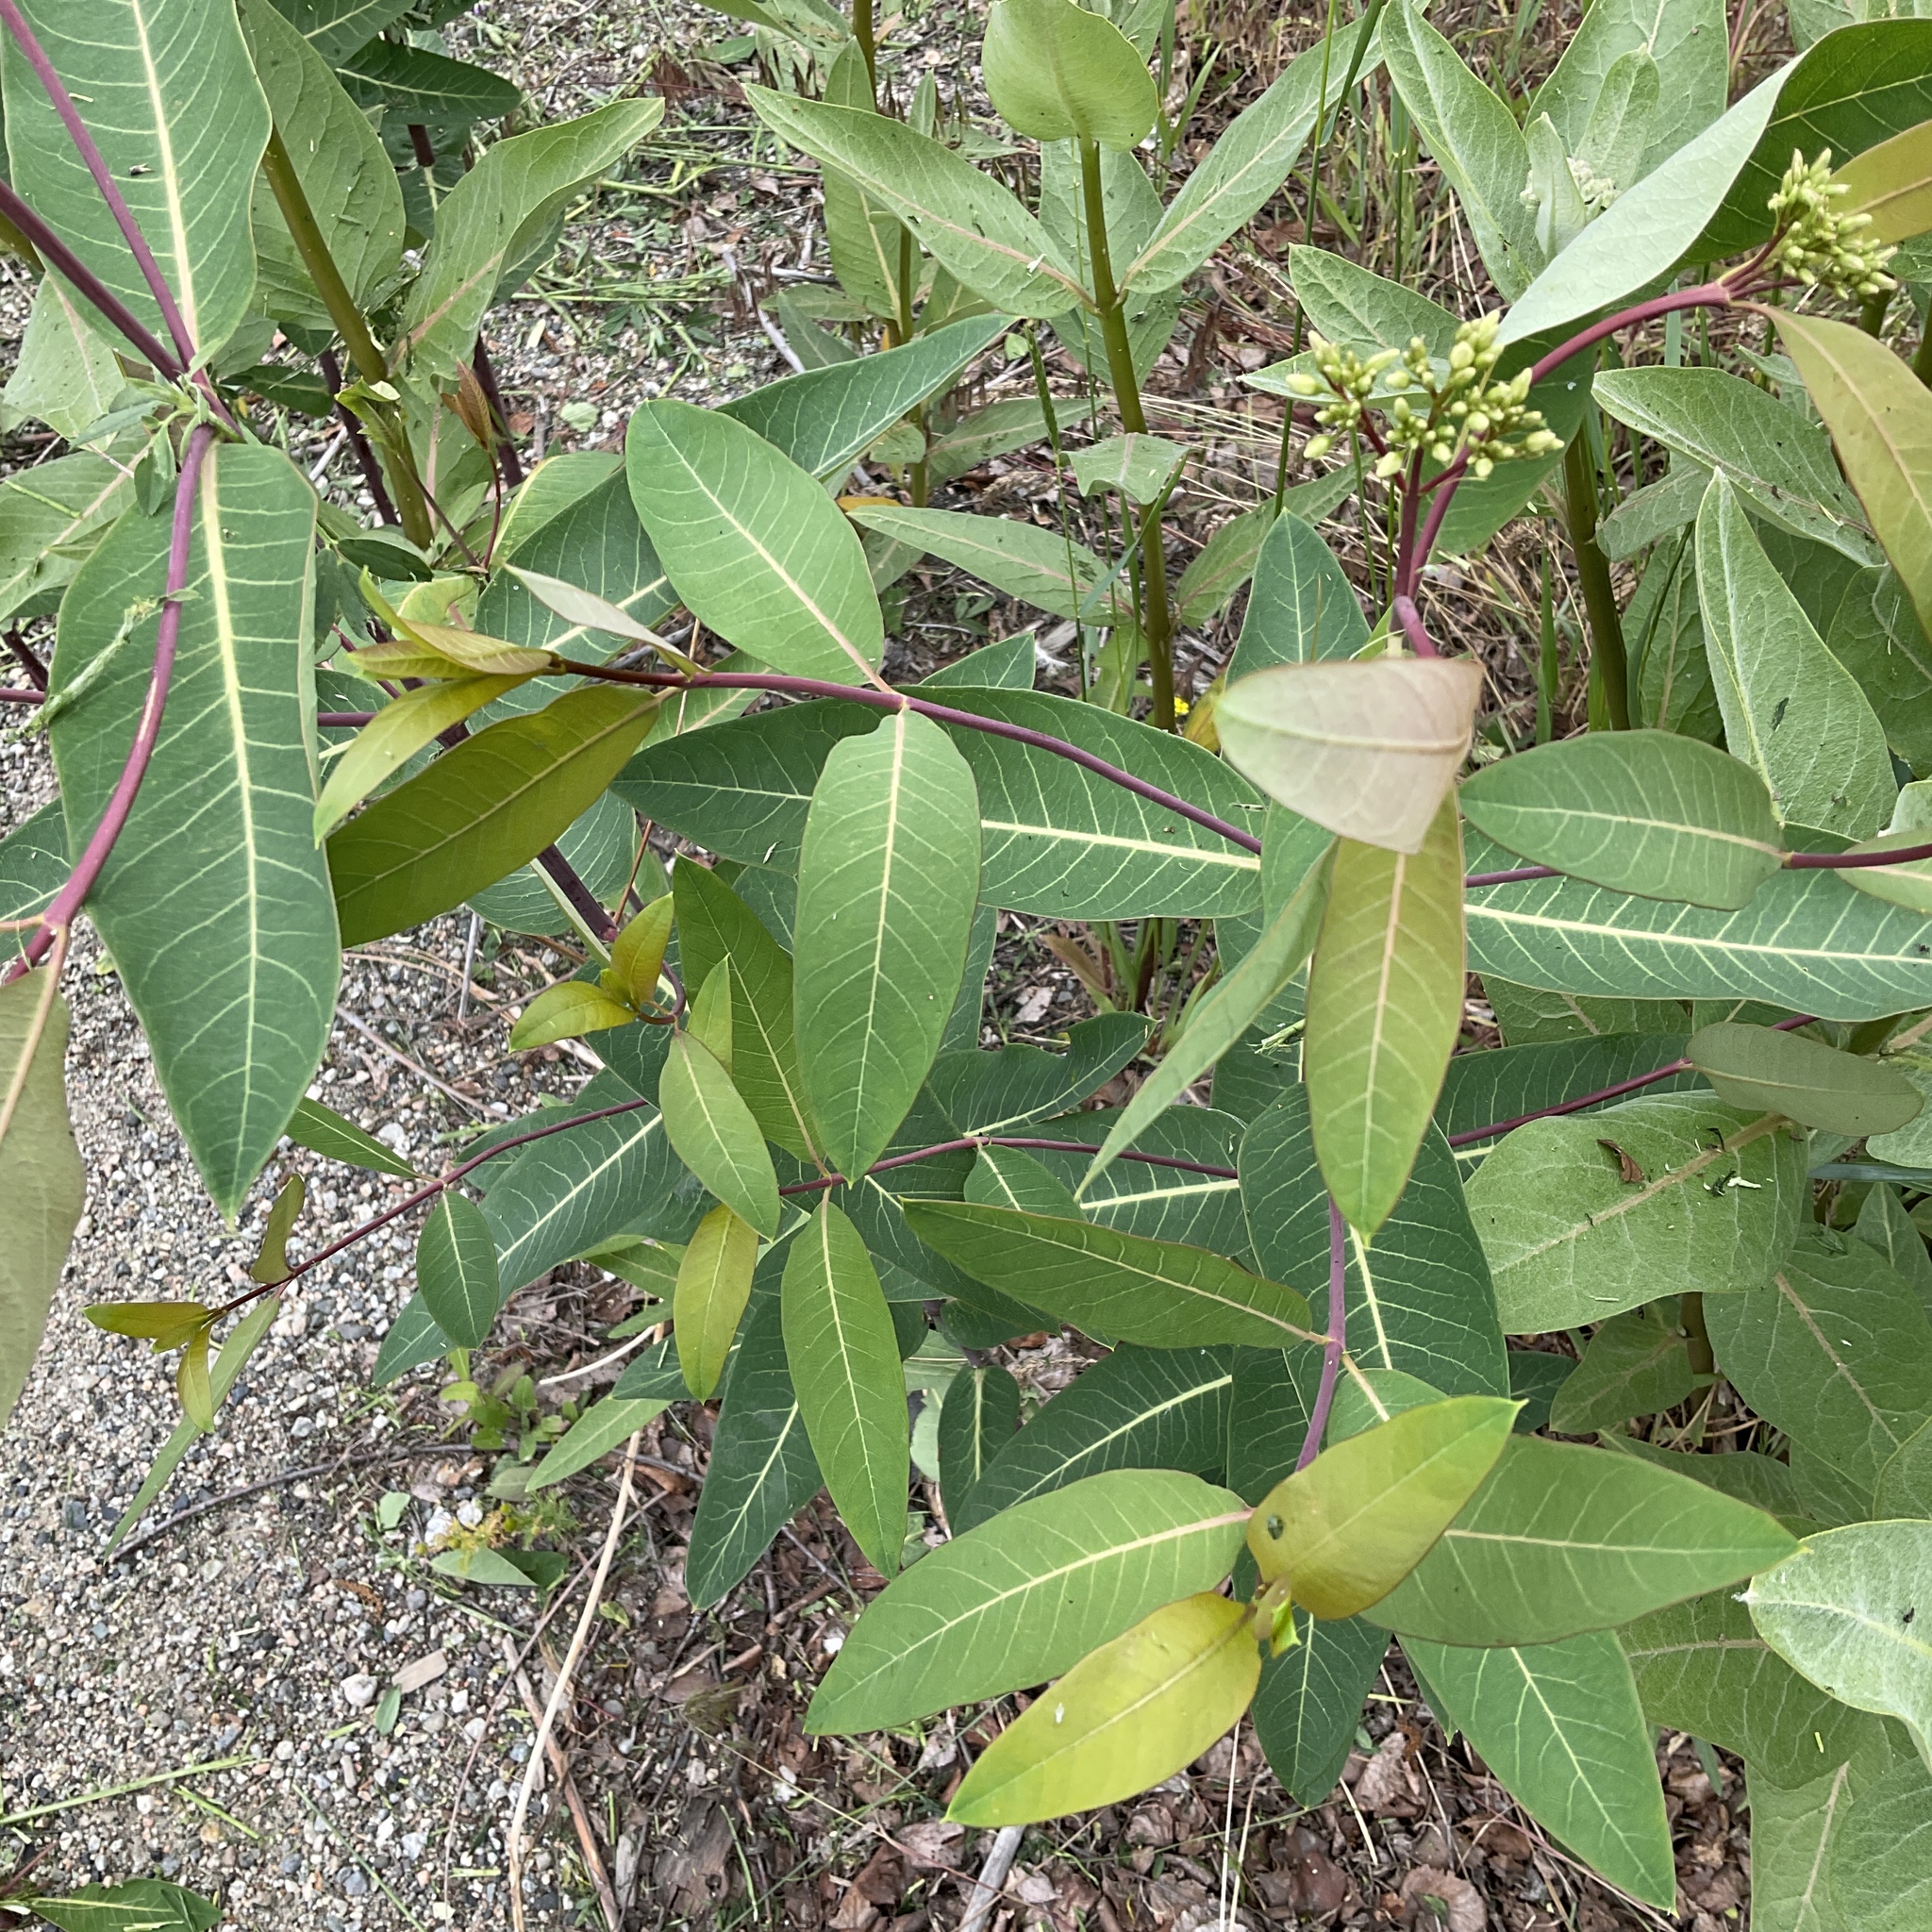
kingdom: Plantae
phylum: Tracheophyta
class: Magnoliopsida
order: Gentianales
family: Apocynaceae
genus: Apocynum
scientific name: Apocynum cannabinum
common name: Hemp dogbane
